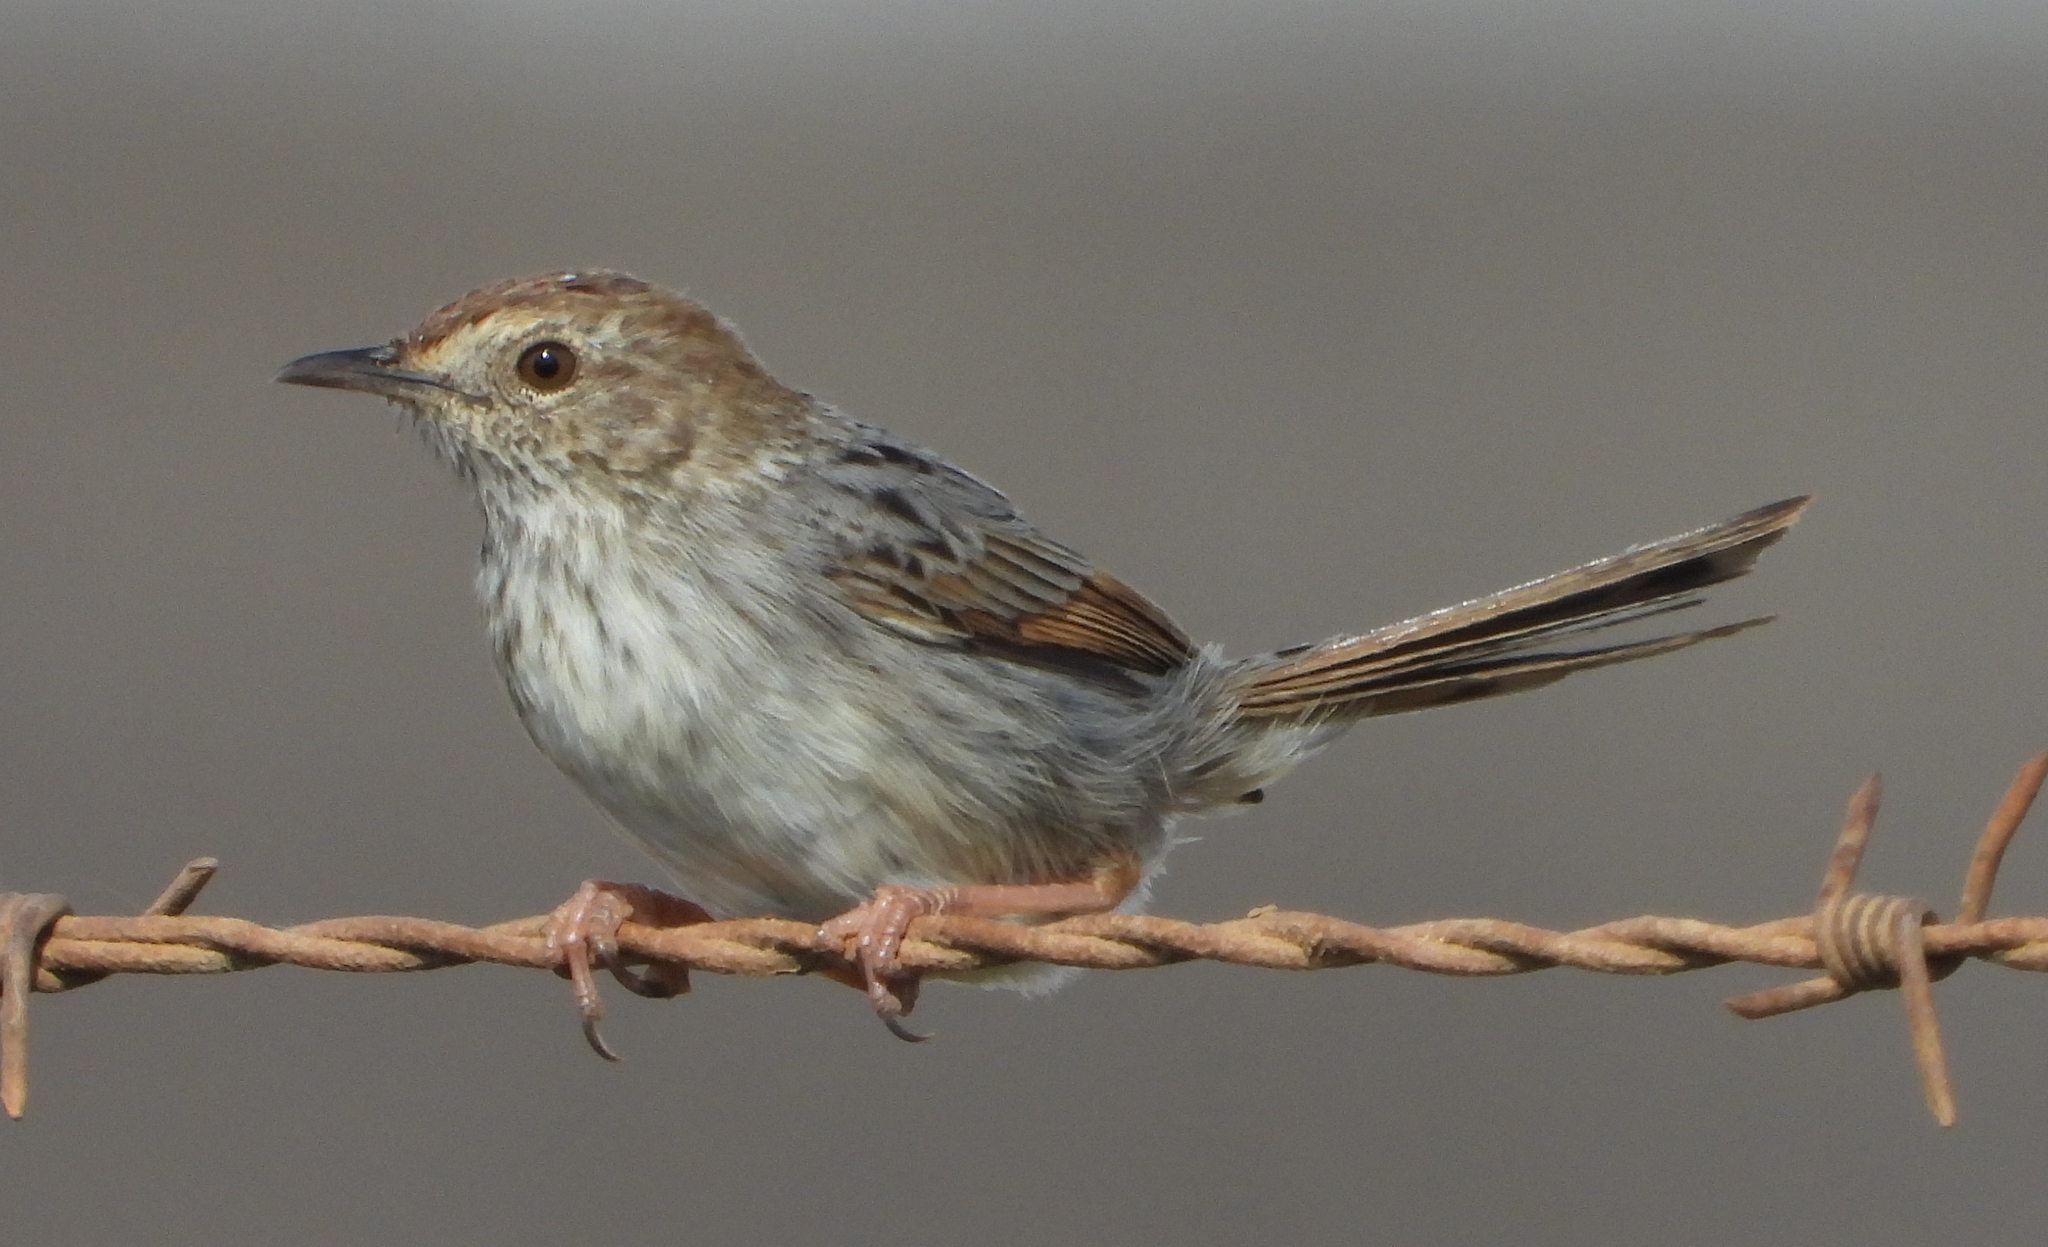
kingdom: Animalia
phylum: Chordata
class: Aves
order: Passeriformes
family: Cisticolidae
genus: Cisticola
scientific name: Cisticola subruficapilla
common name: Grey-backed cisticola
